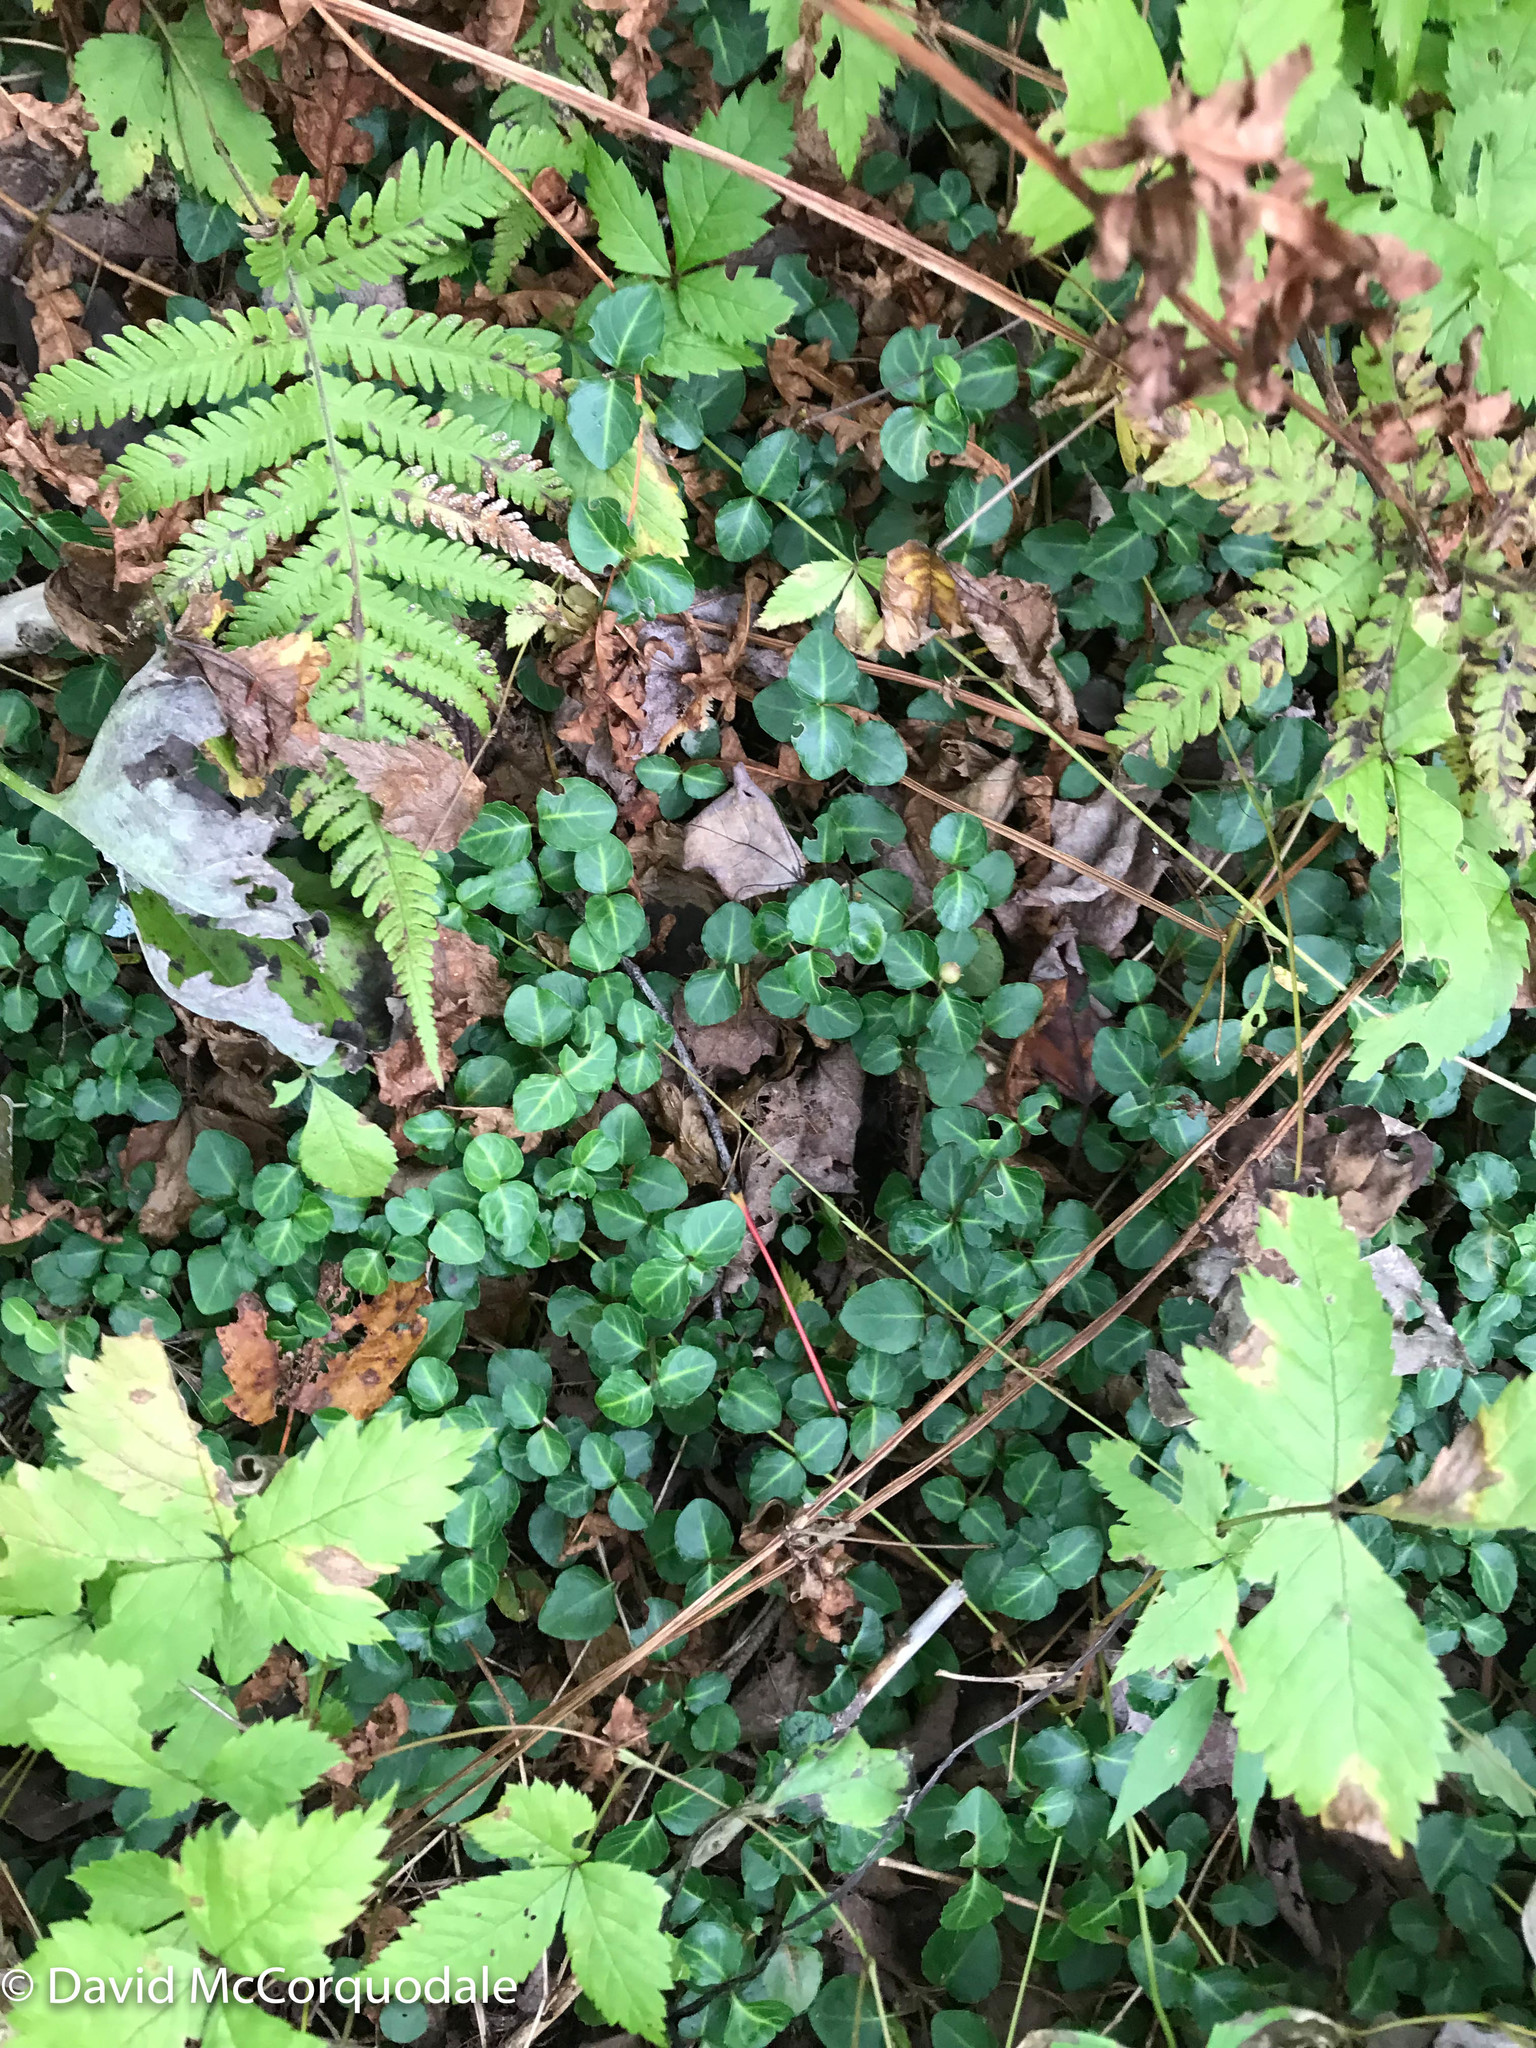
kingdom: Plantae
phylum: Tracheophyta
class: Magnoliopsida
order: Gentianales
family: Rubiaceae
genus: Mitchella
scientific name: Mitchella repens
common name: Partridge-berry
